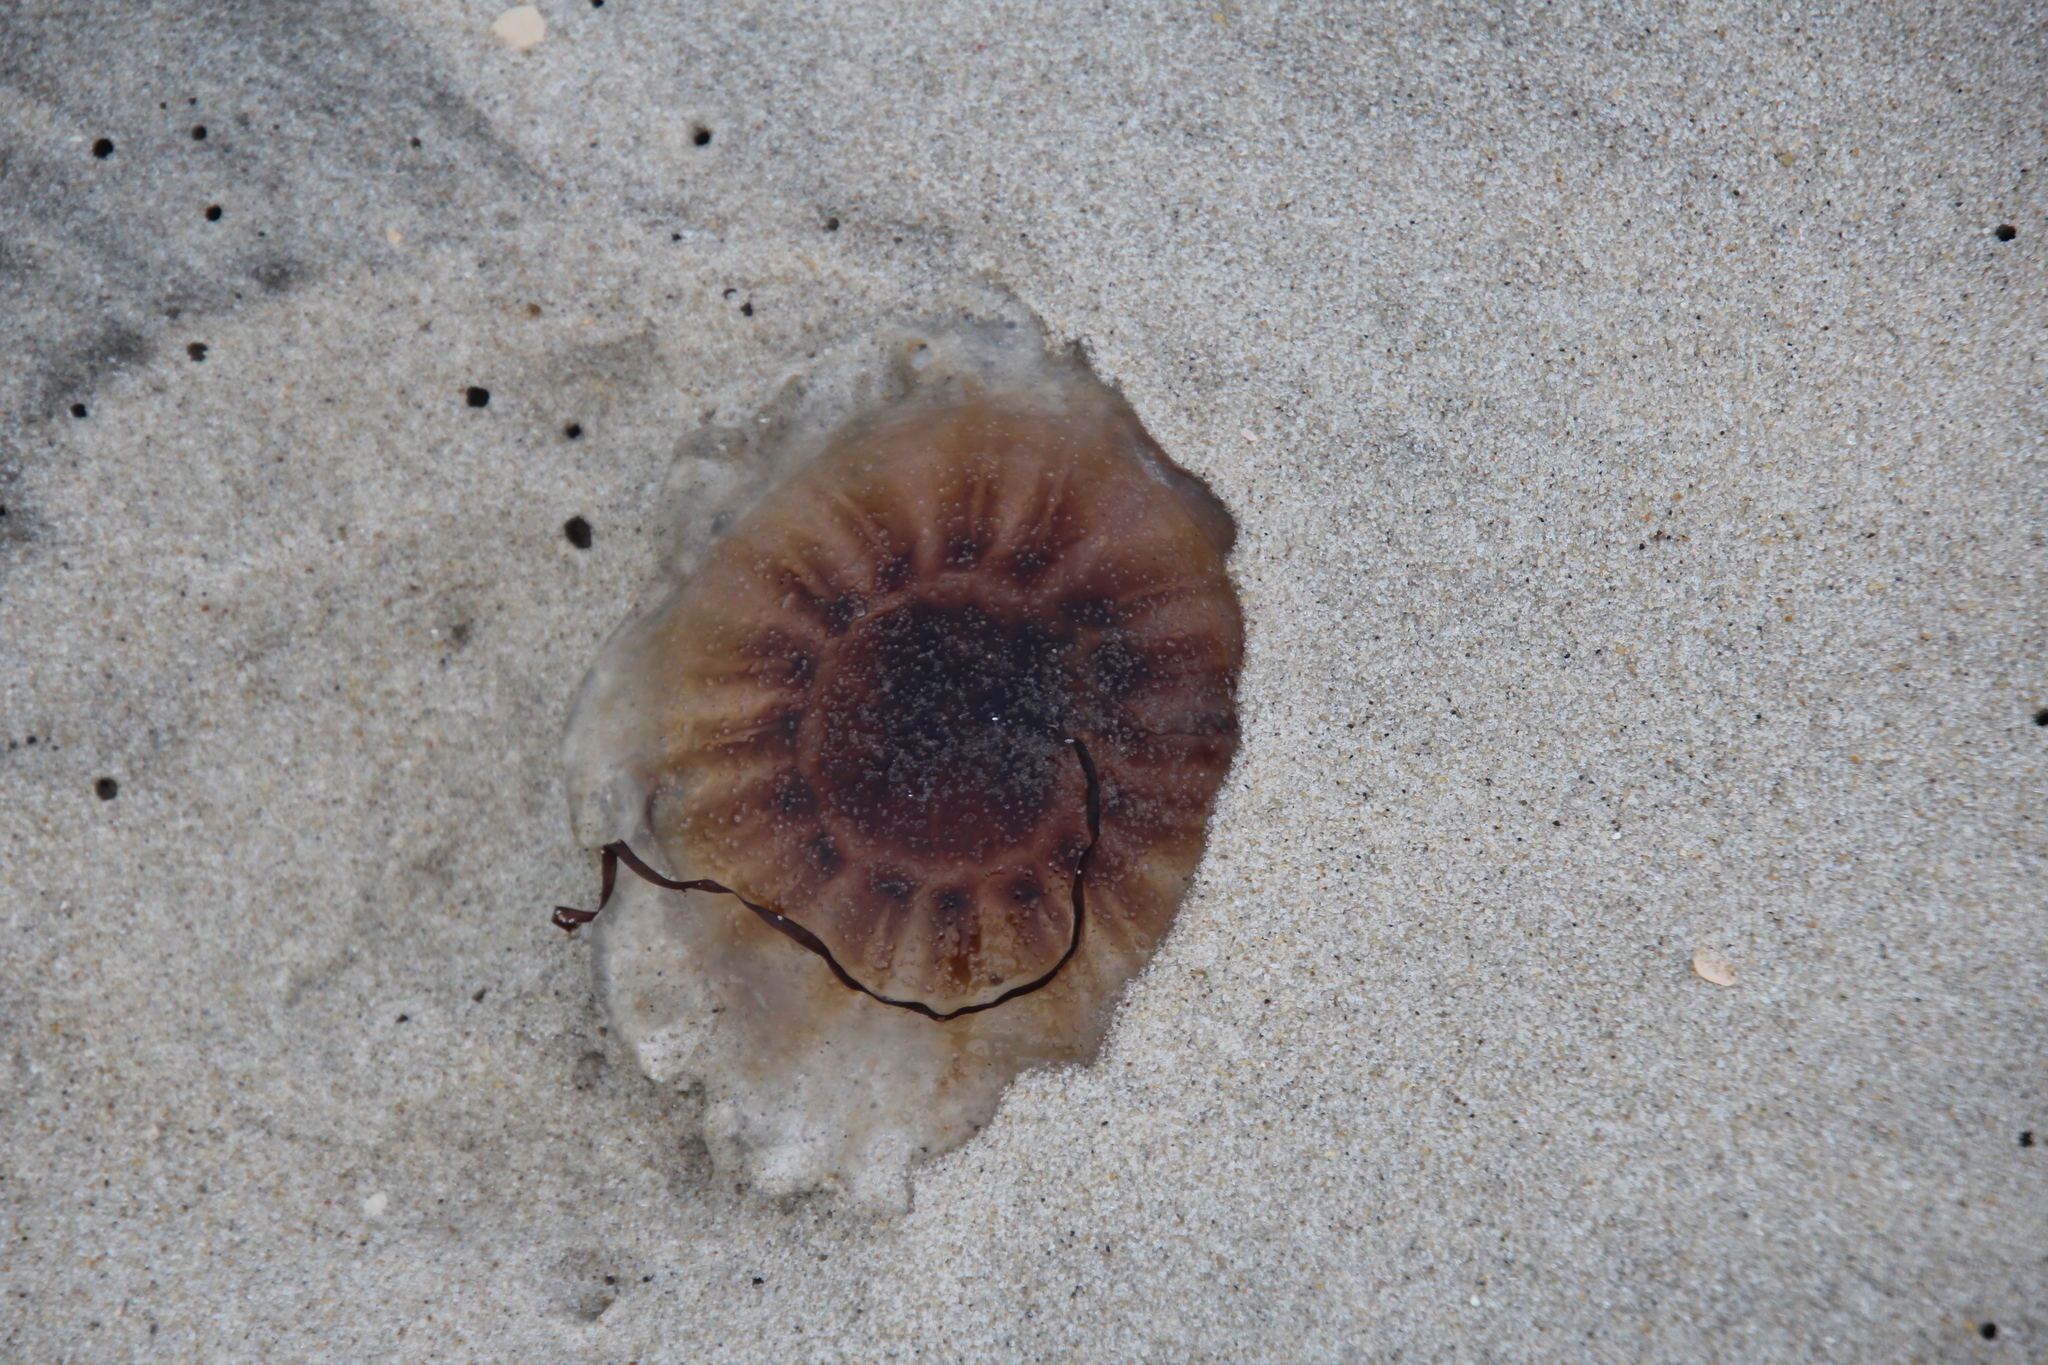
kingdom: Animalia
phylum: Cnidaria
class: Scyphozoa
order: Semaeostomeae
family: Cyaneidae
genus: Cyanea
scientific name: Cyanea versicolor
